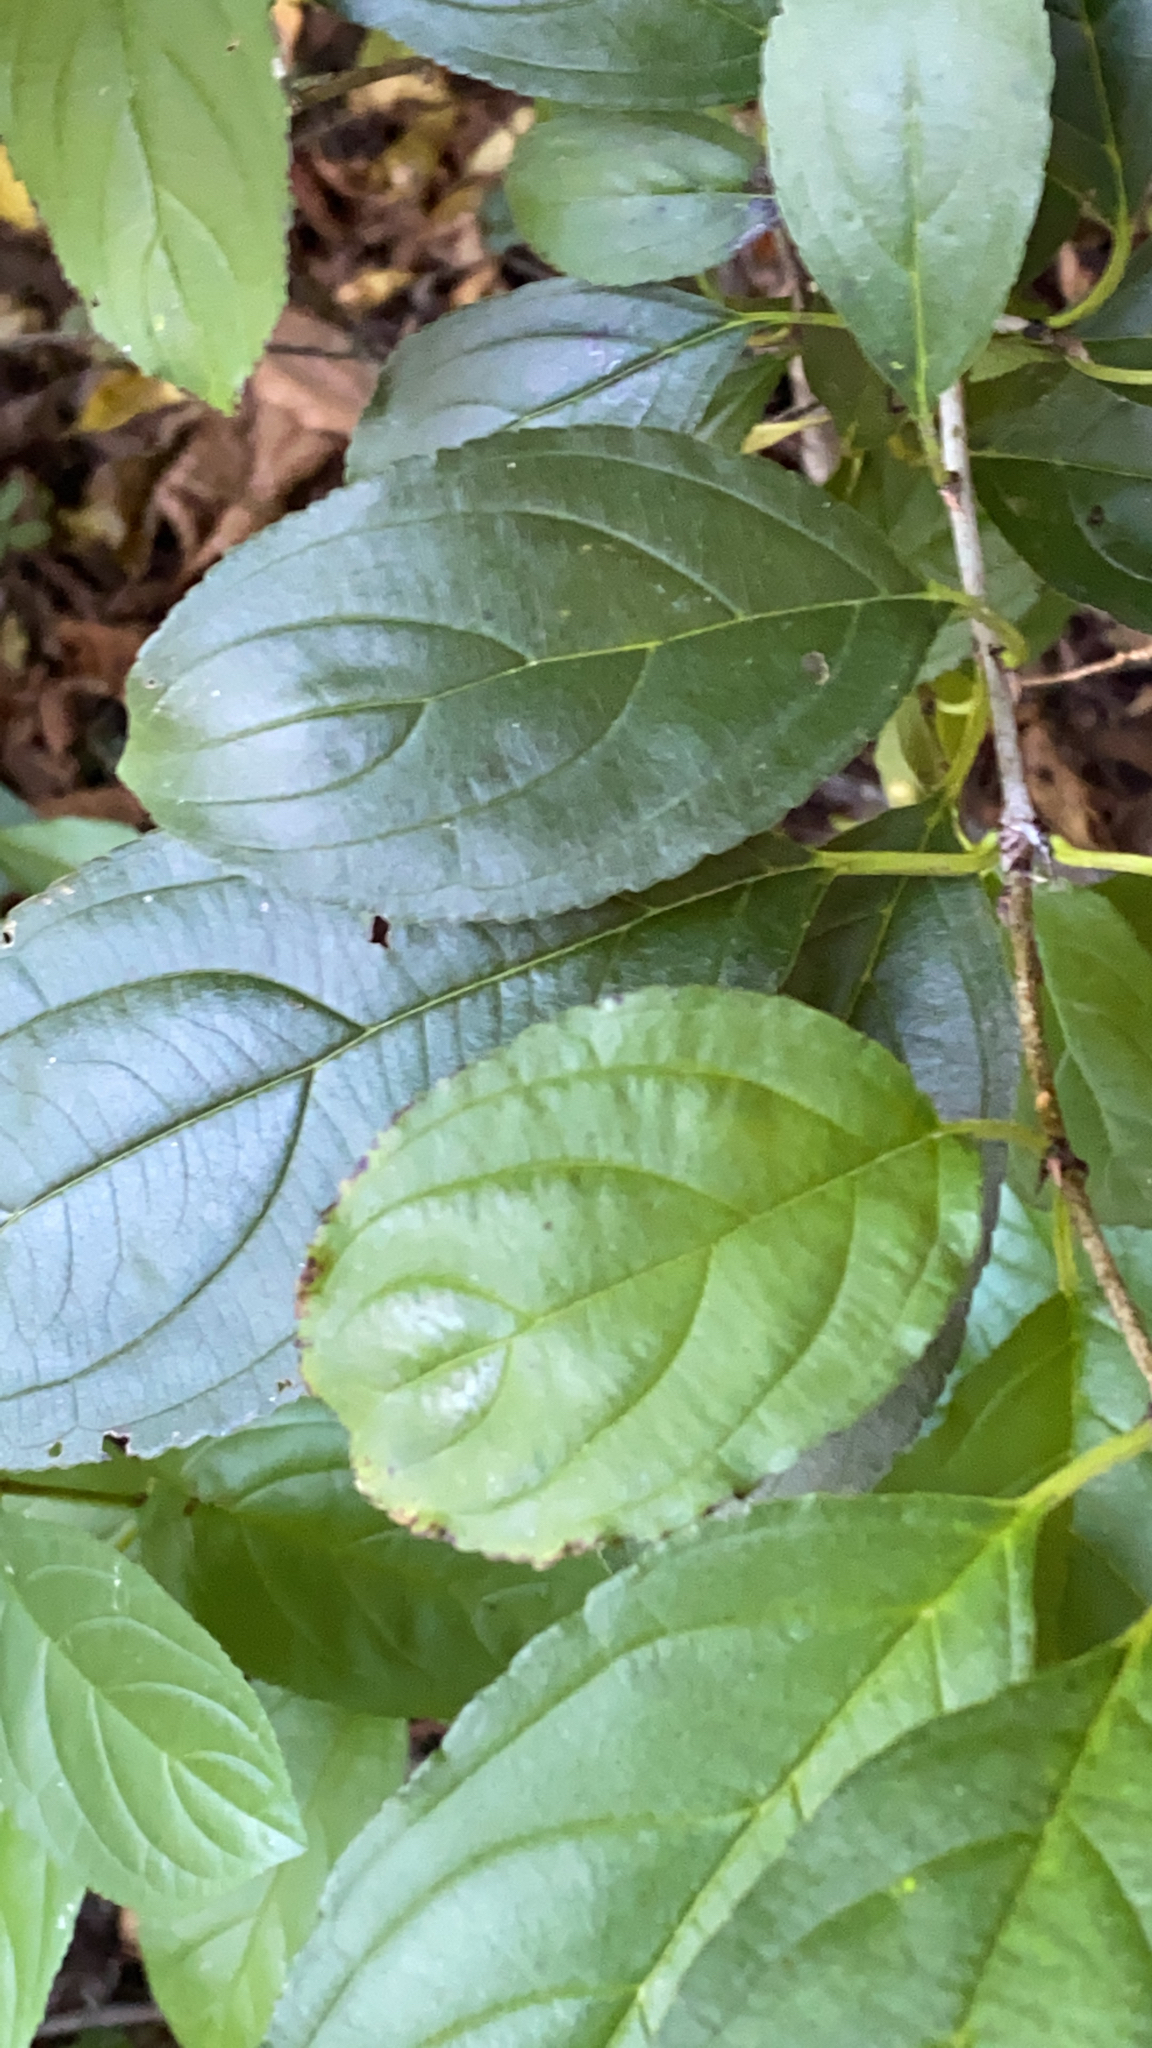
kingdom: Plantae
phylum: Tracheophyta
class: Magnoliopsida
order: Rosales
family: Rhamnaceae
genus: Rhamnus
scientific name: Rhamnus cathartica
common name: Common buckthorn
